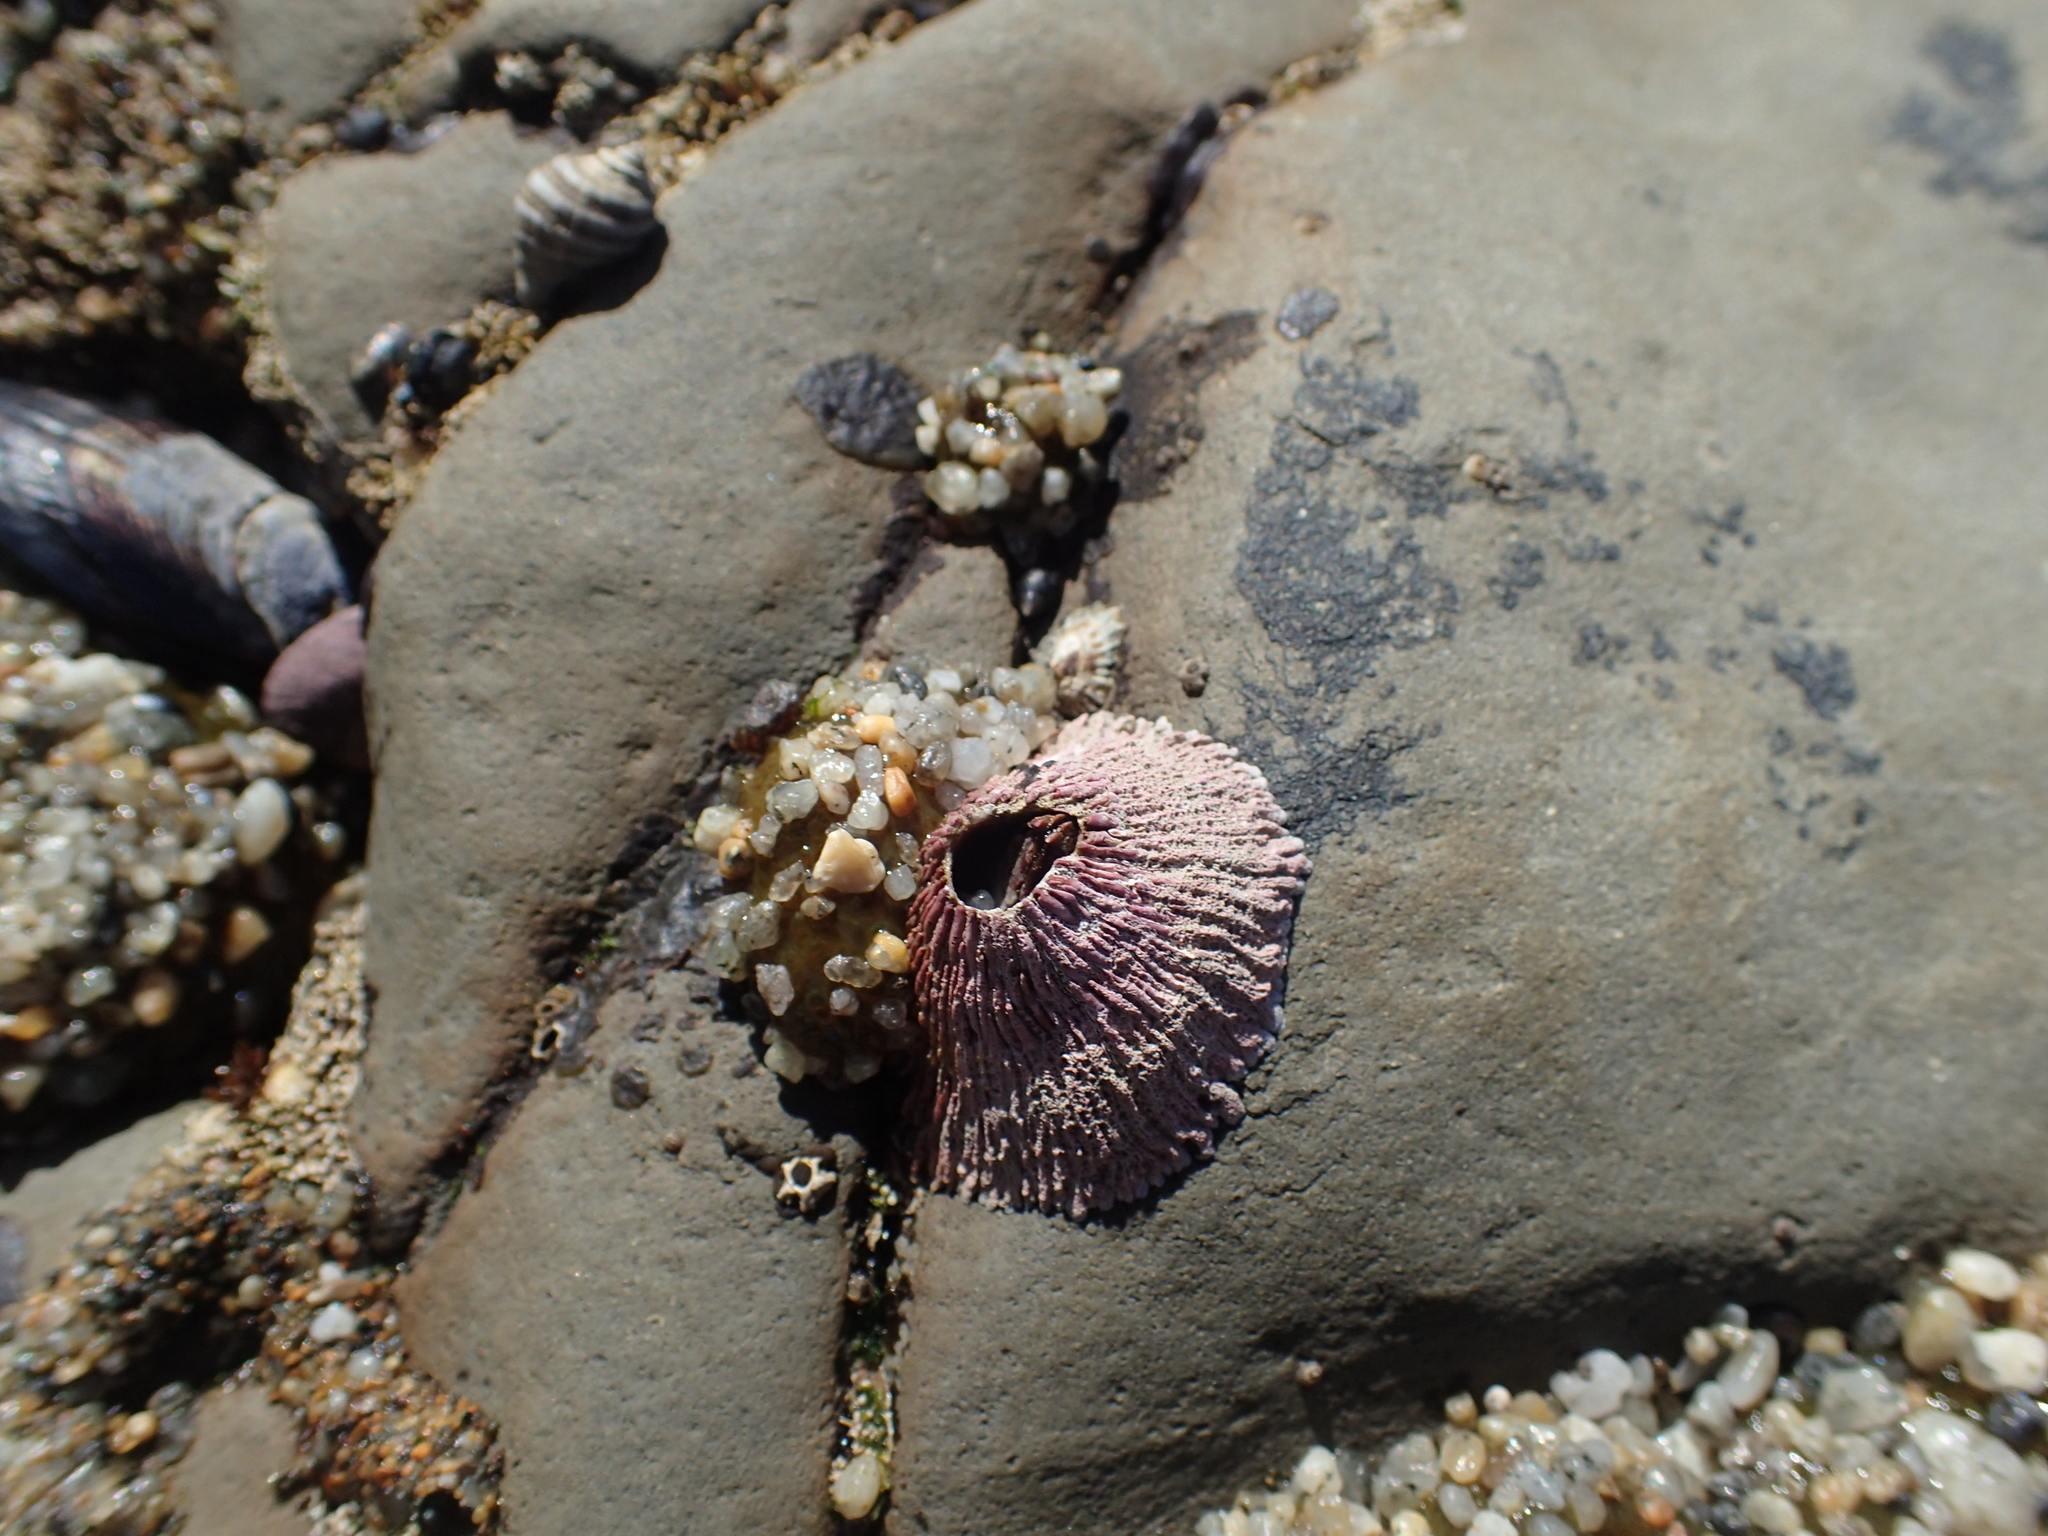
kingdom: Animalia
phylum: Arthropoda
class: Maxillopoda
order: Sessilia
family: Tetraclitidae
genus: Tetraclita
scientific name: Tetraclita rubescens
